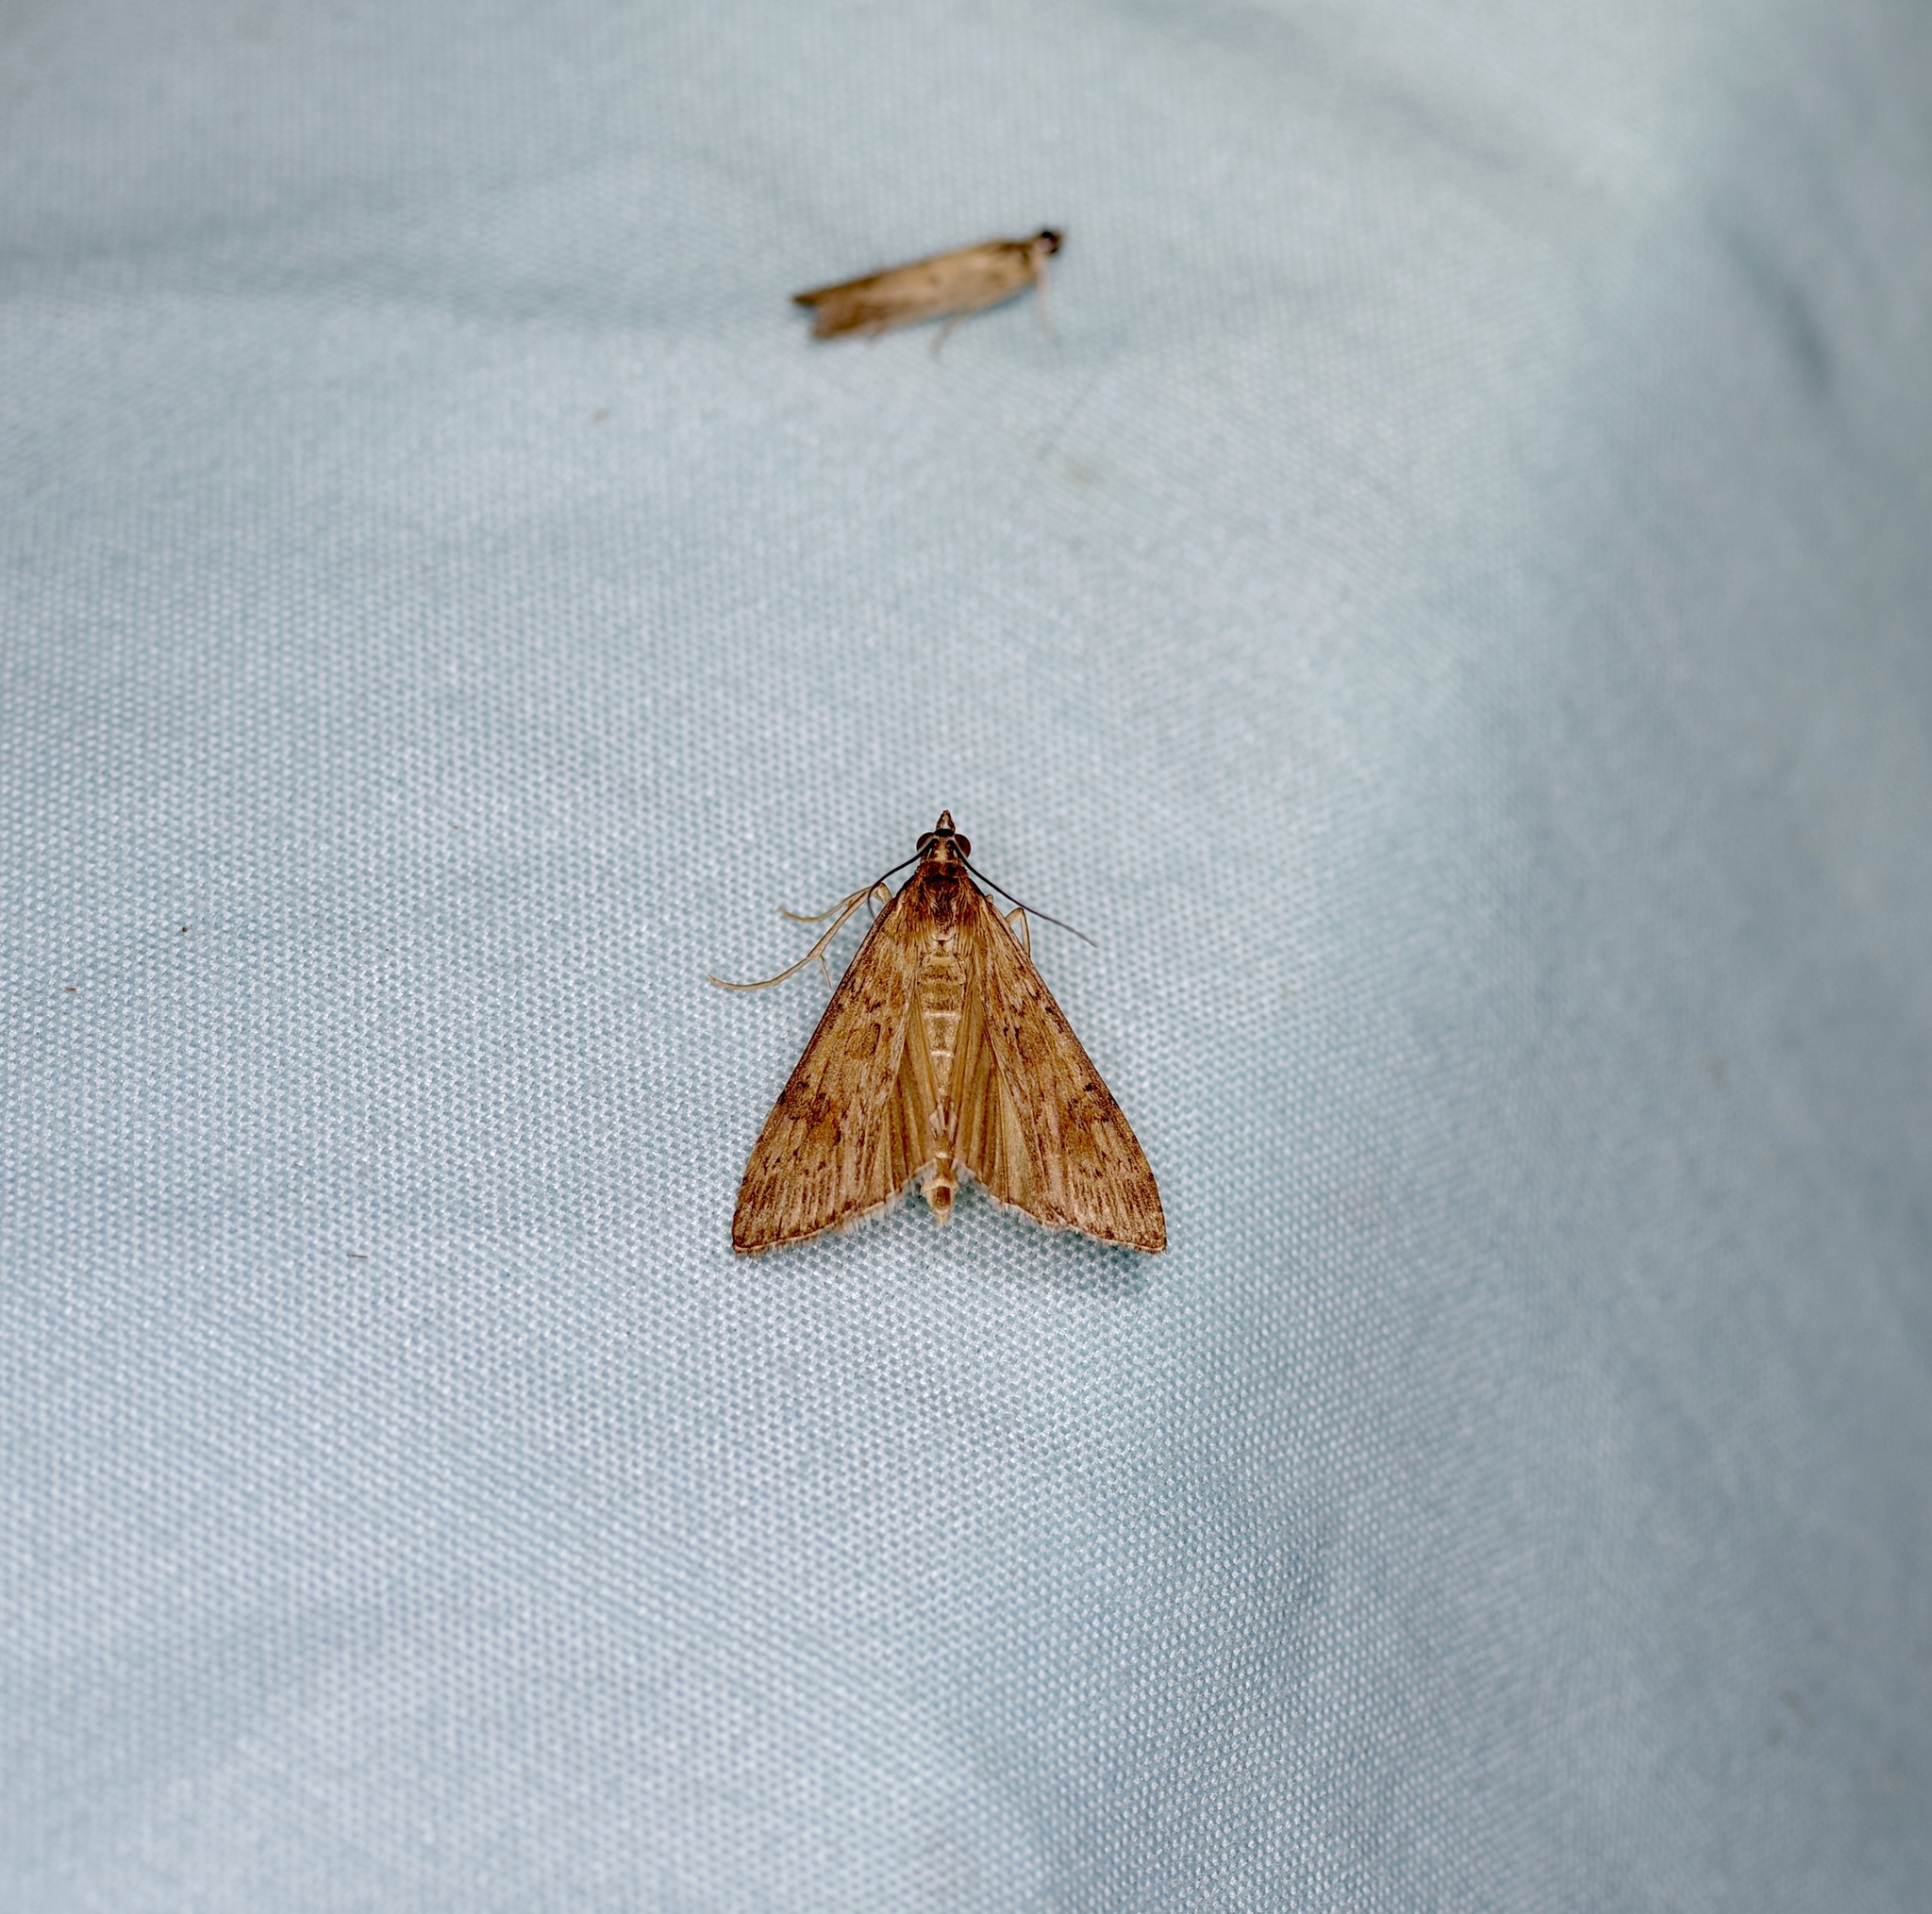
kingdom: Animalia
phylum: Arthropoda
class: Insecta
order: Lepidoptera
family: Crambidae
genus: Ostrinia
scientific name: Ostrinia penitalis
